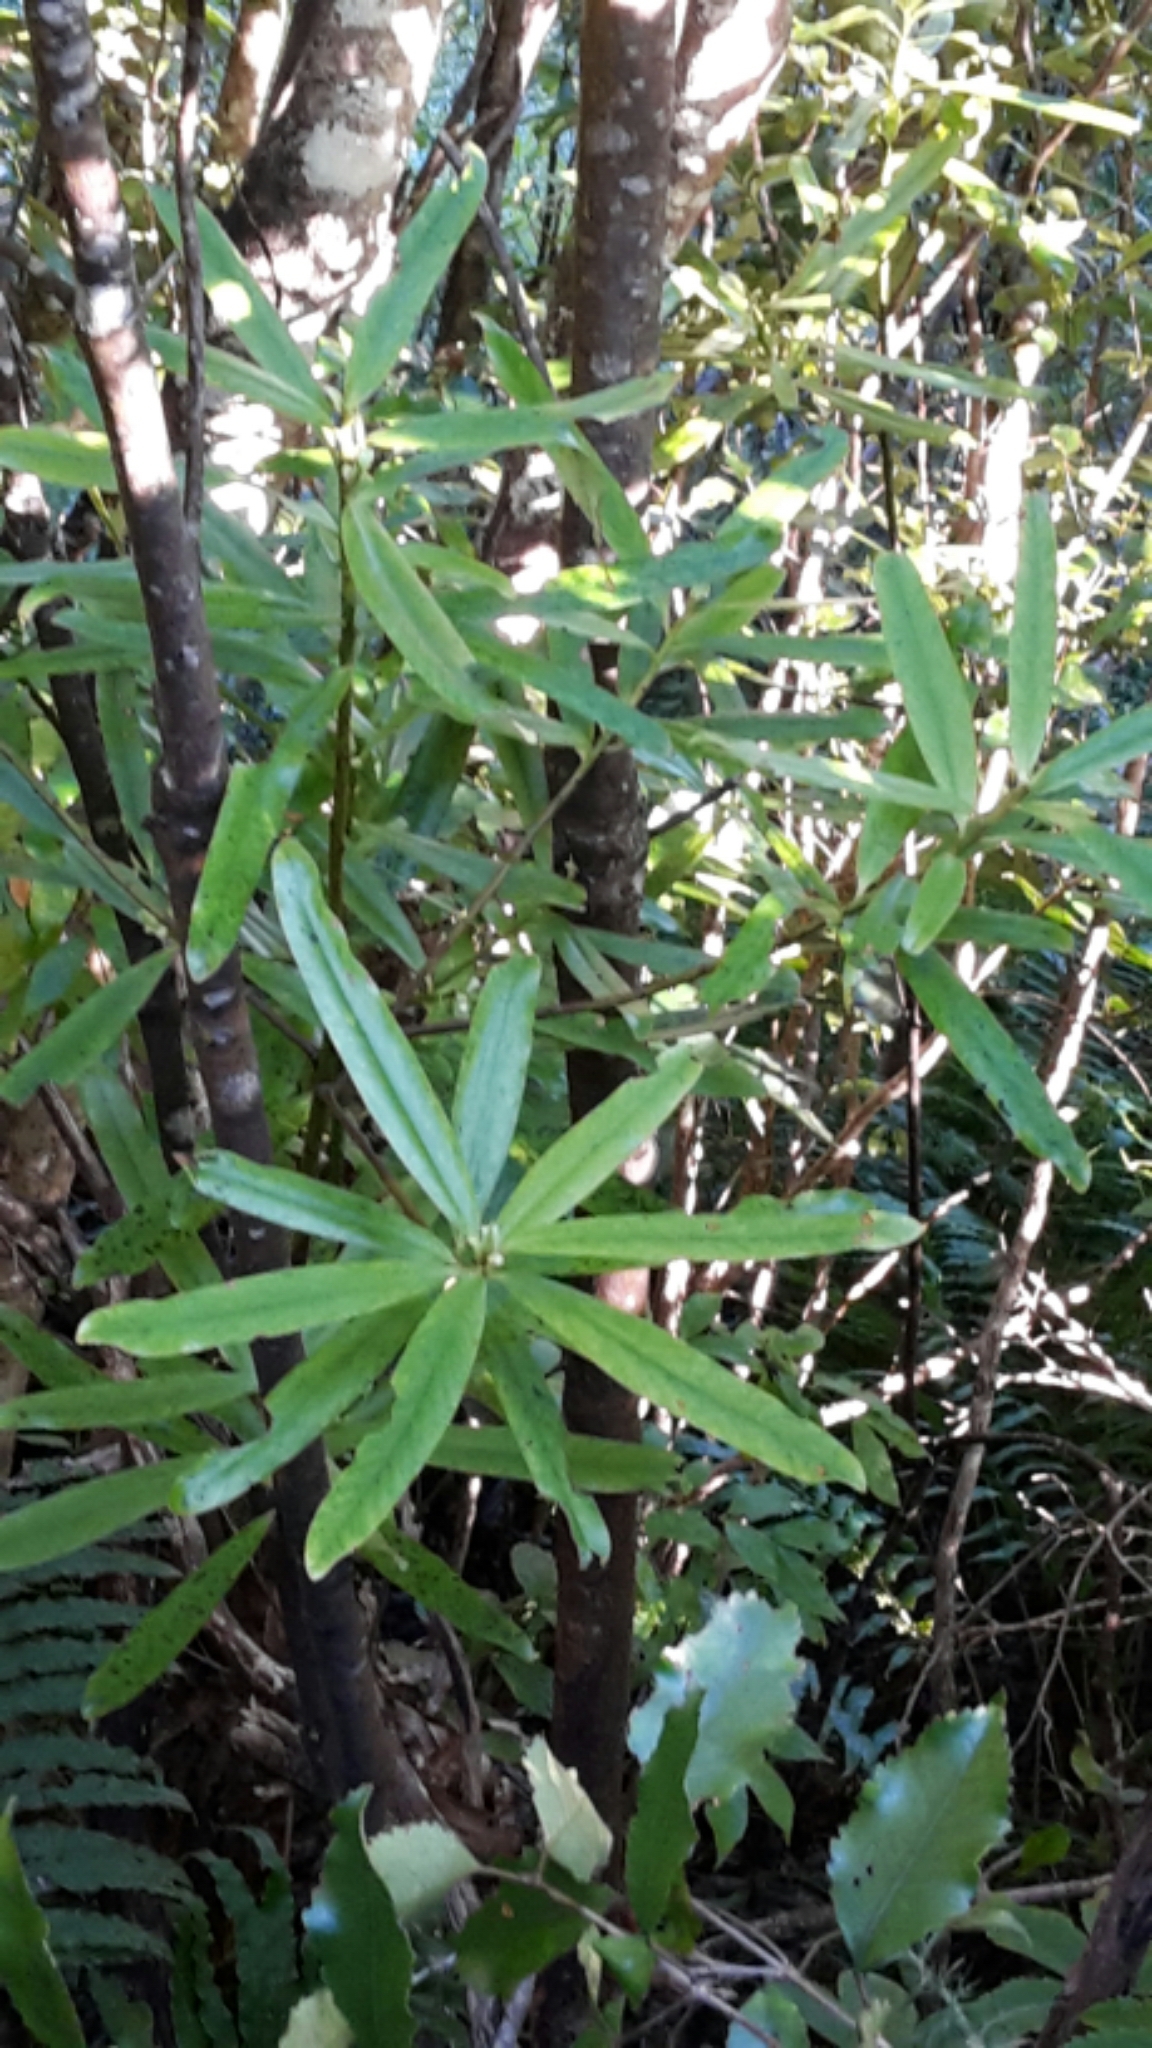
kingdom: Plantae
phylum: Tracheophyta
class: Magnoliopsida
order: Ericales
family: Primulaceae
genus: Myrsine
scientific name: Myrsine salicina
